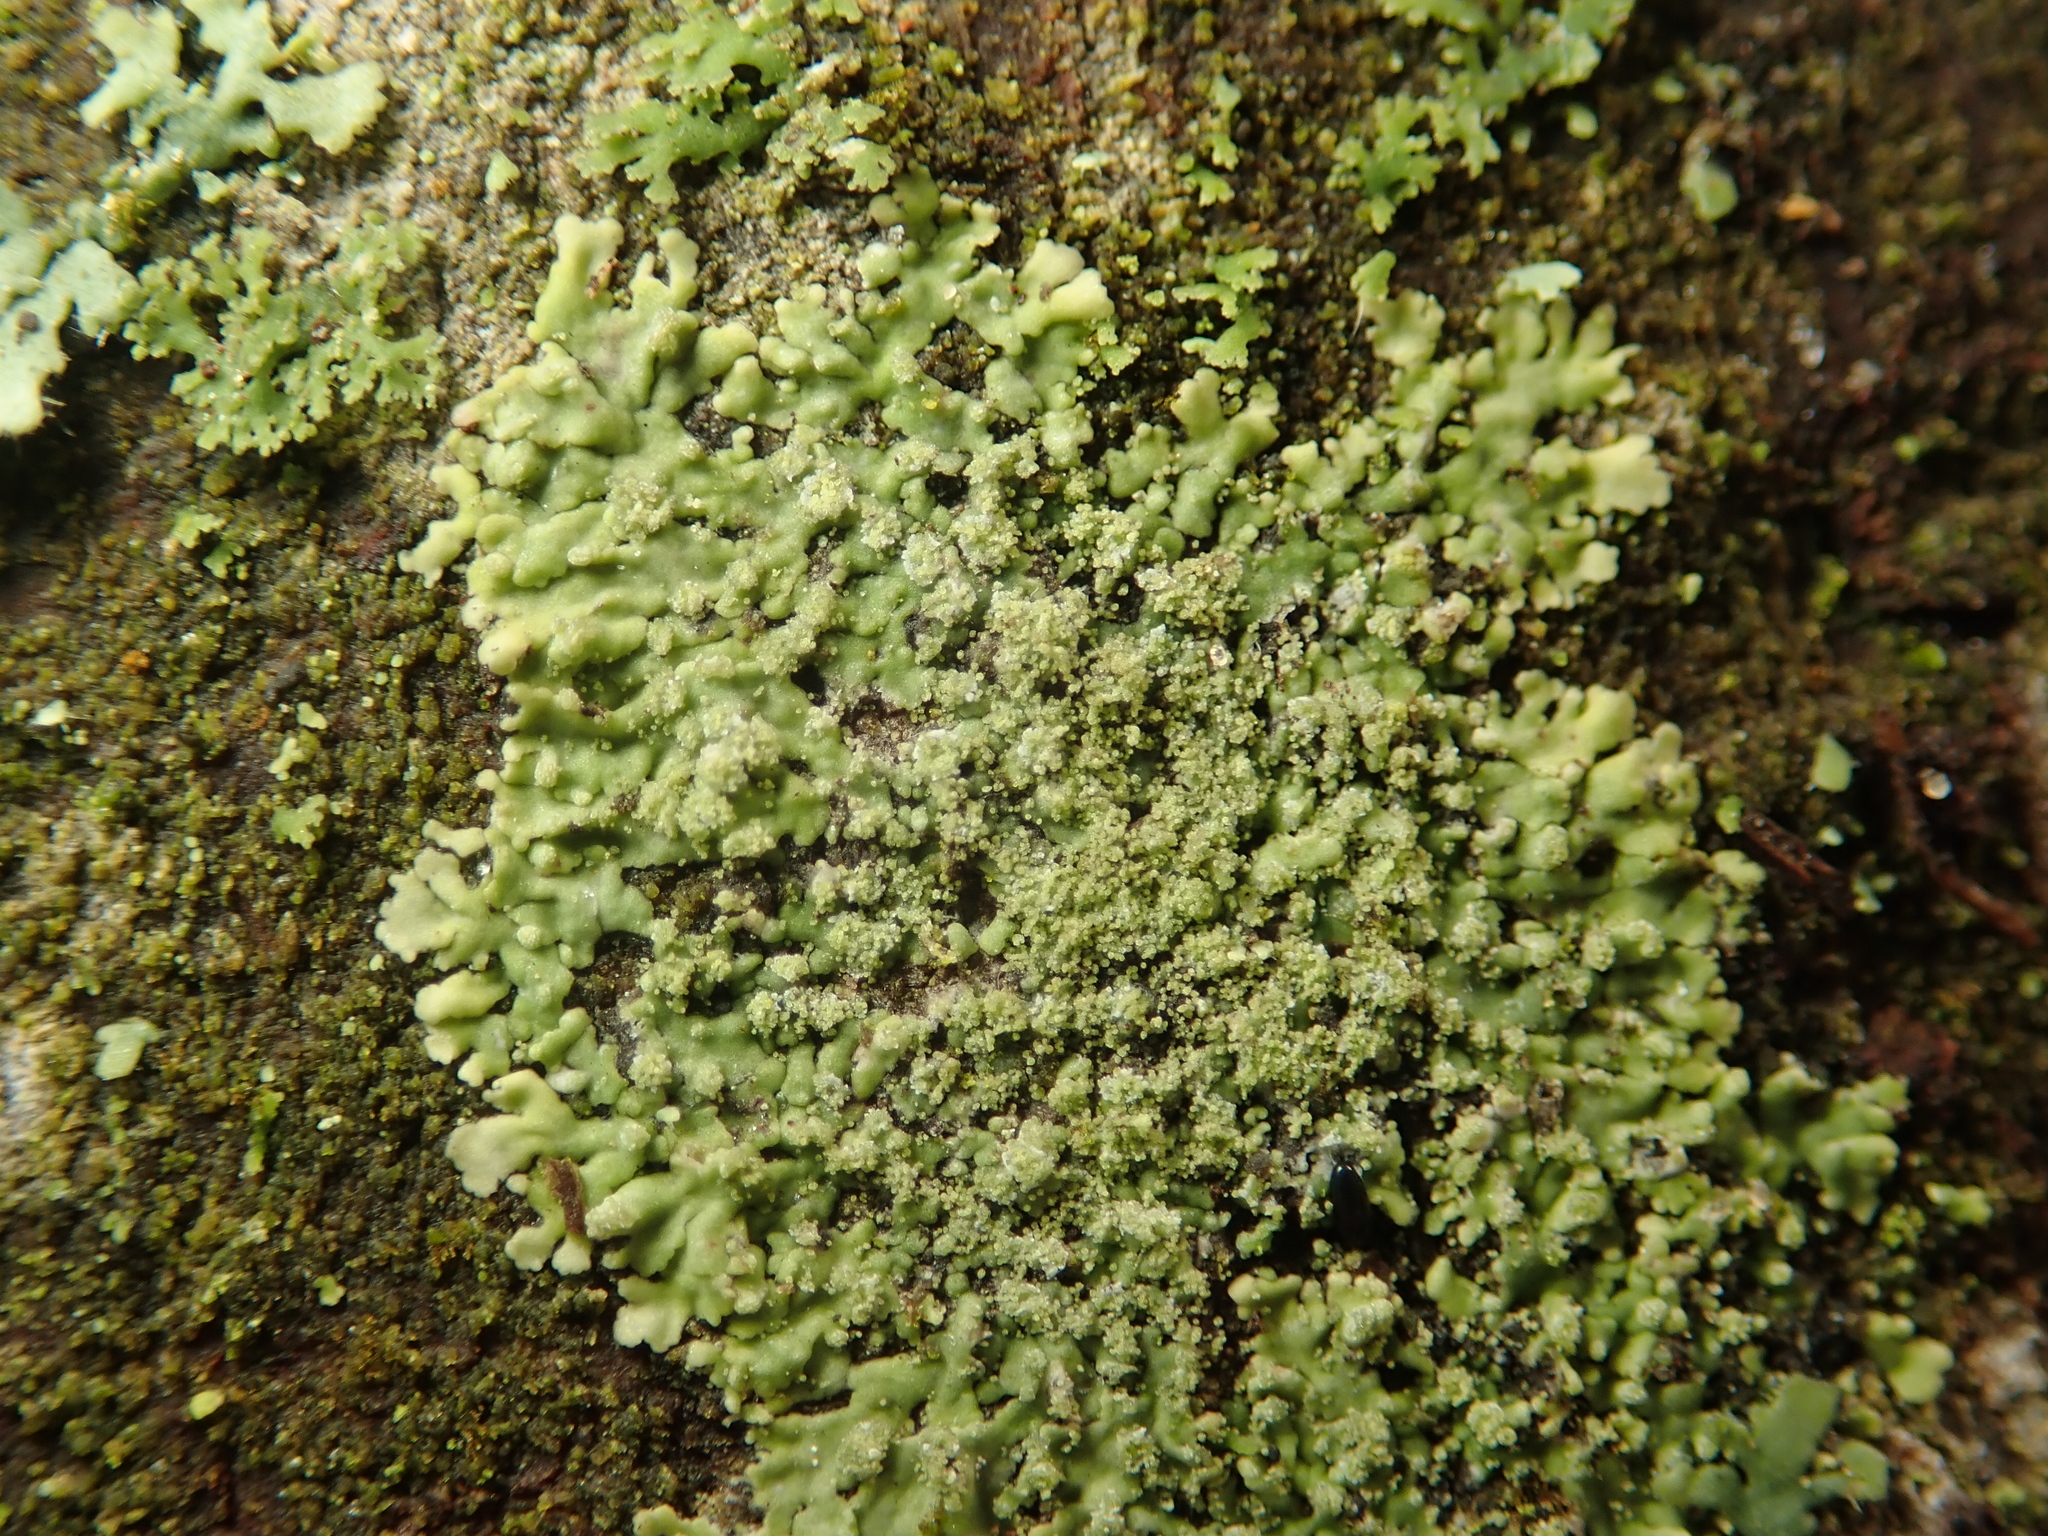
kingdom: Fungi
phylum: Ascomycota
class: Lecanoromycetes
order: Caliciales
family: Physciaceae
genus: Hyperphyscia
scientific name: Hyperphyscia adglutinata
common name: Grainy shadow-crust lichen
